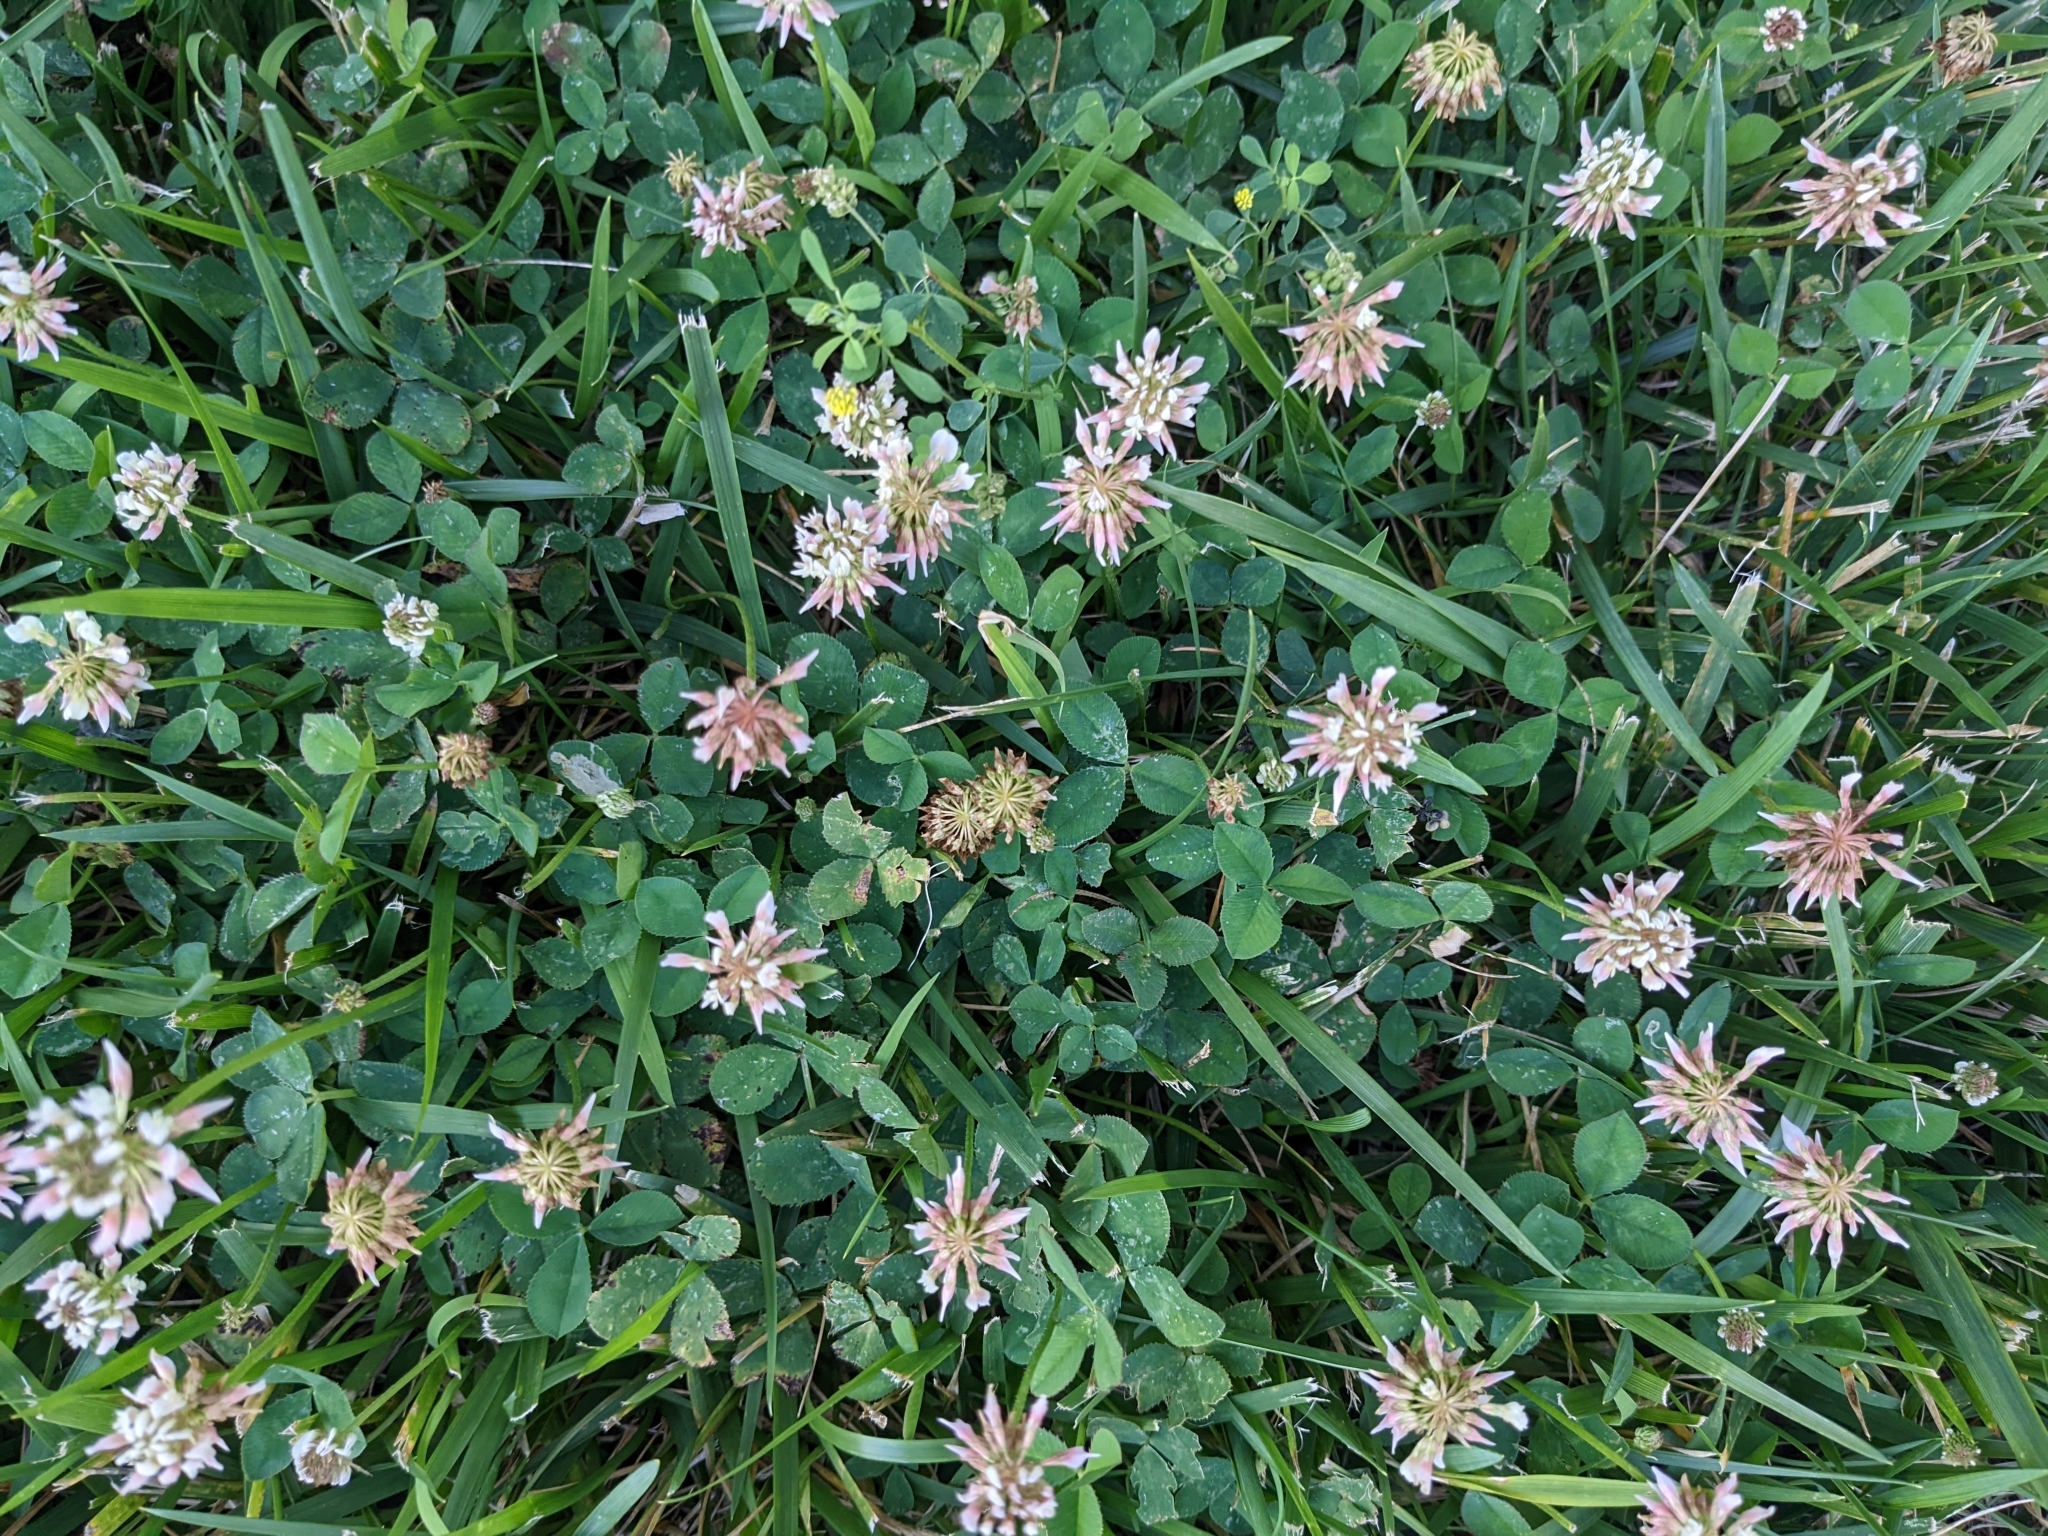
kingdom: Plantae
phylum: Tracheophyta
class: Magnoliopsida
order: Fabales
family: Fabaceae
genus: Trifolium
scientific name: Trifolium repens
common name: White clover
